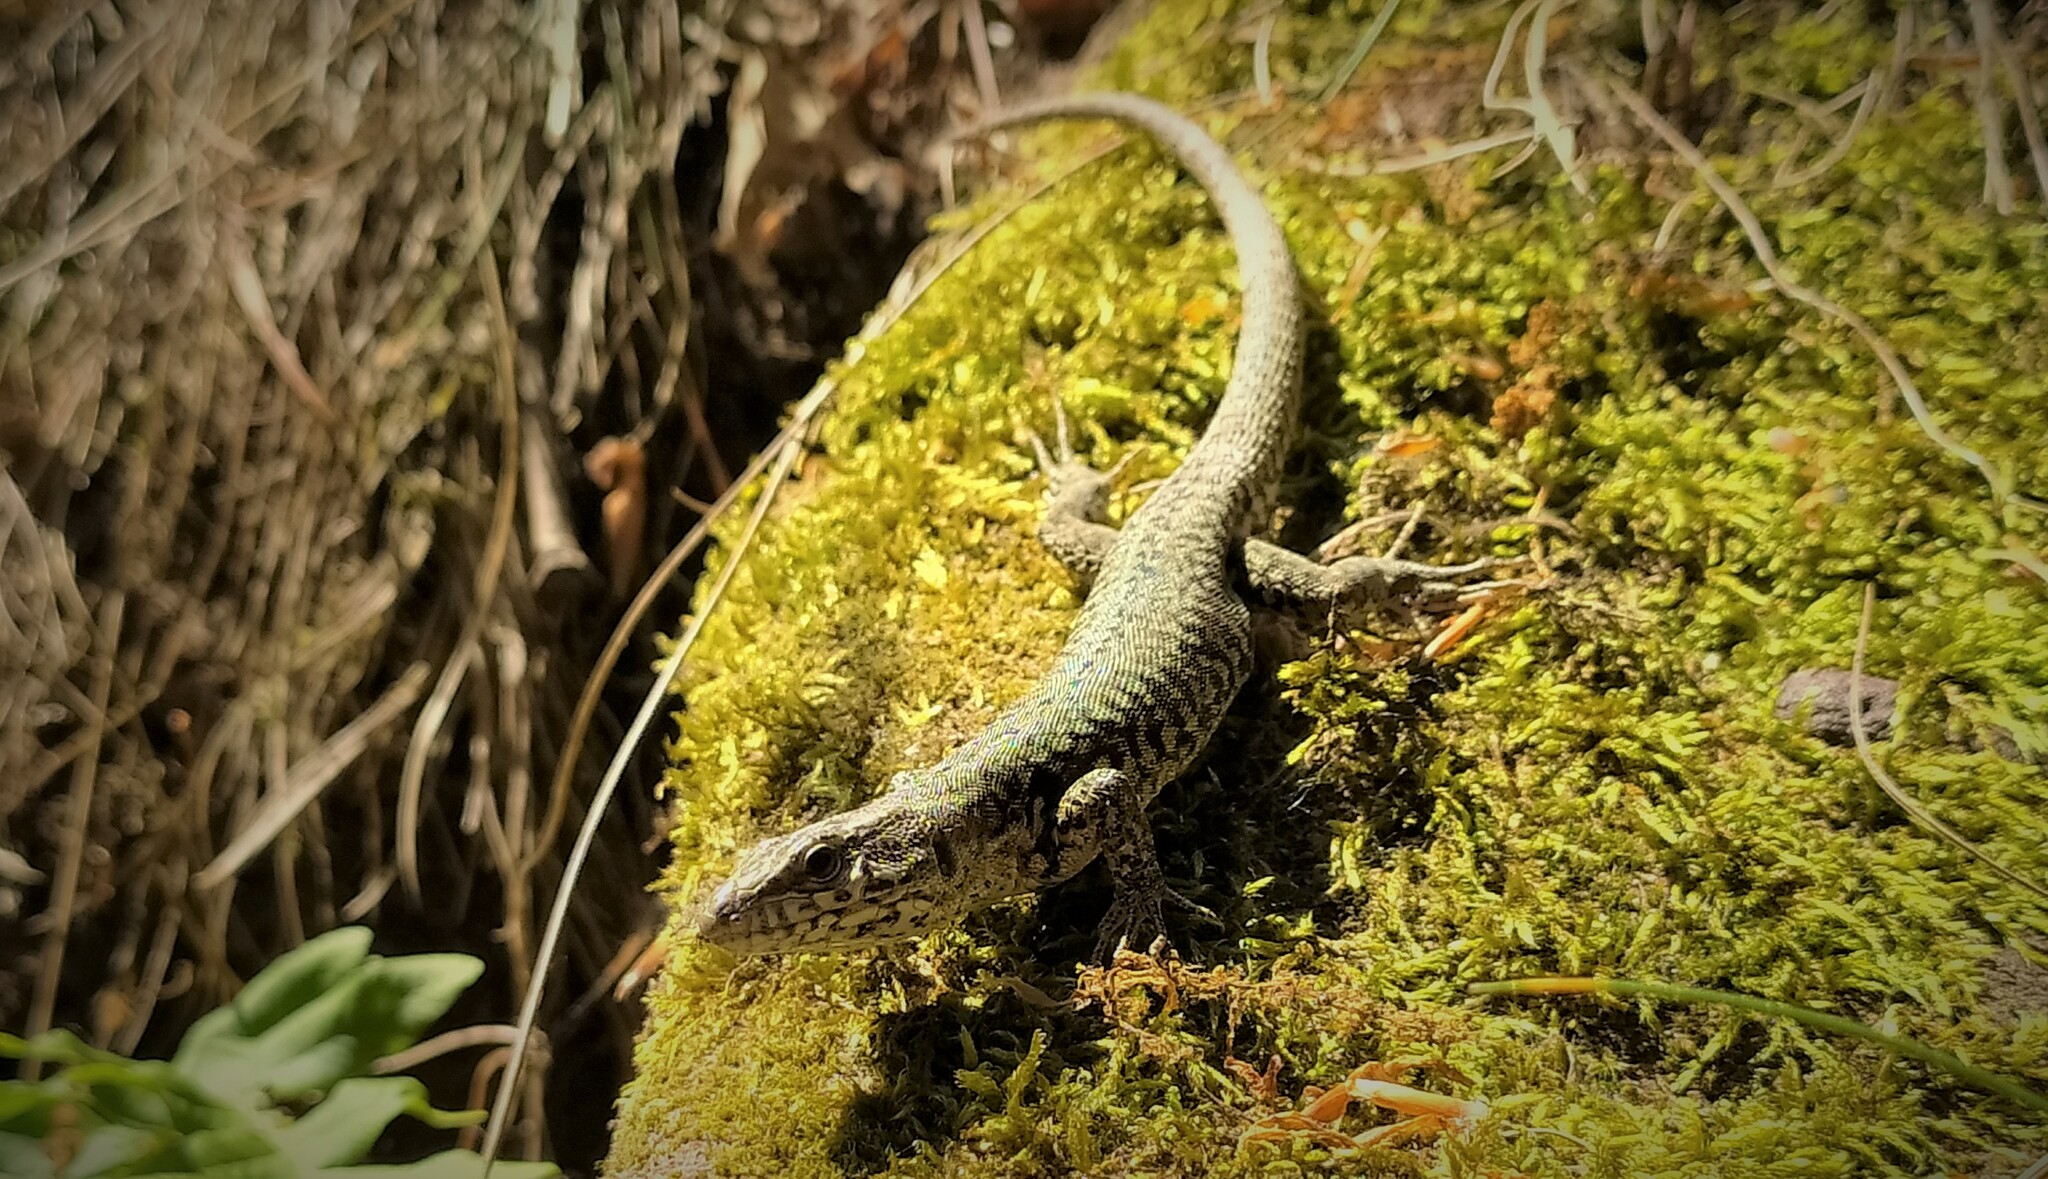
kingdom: Animalia
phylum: Chordata
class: Squamata
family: Lacertidae
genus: Podarcis
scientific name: Podarcis muralis
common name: Common wall lizard
